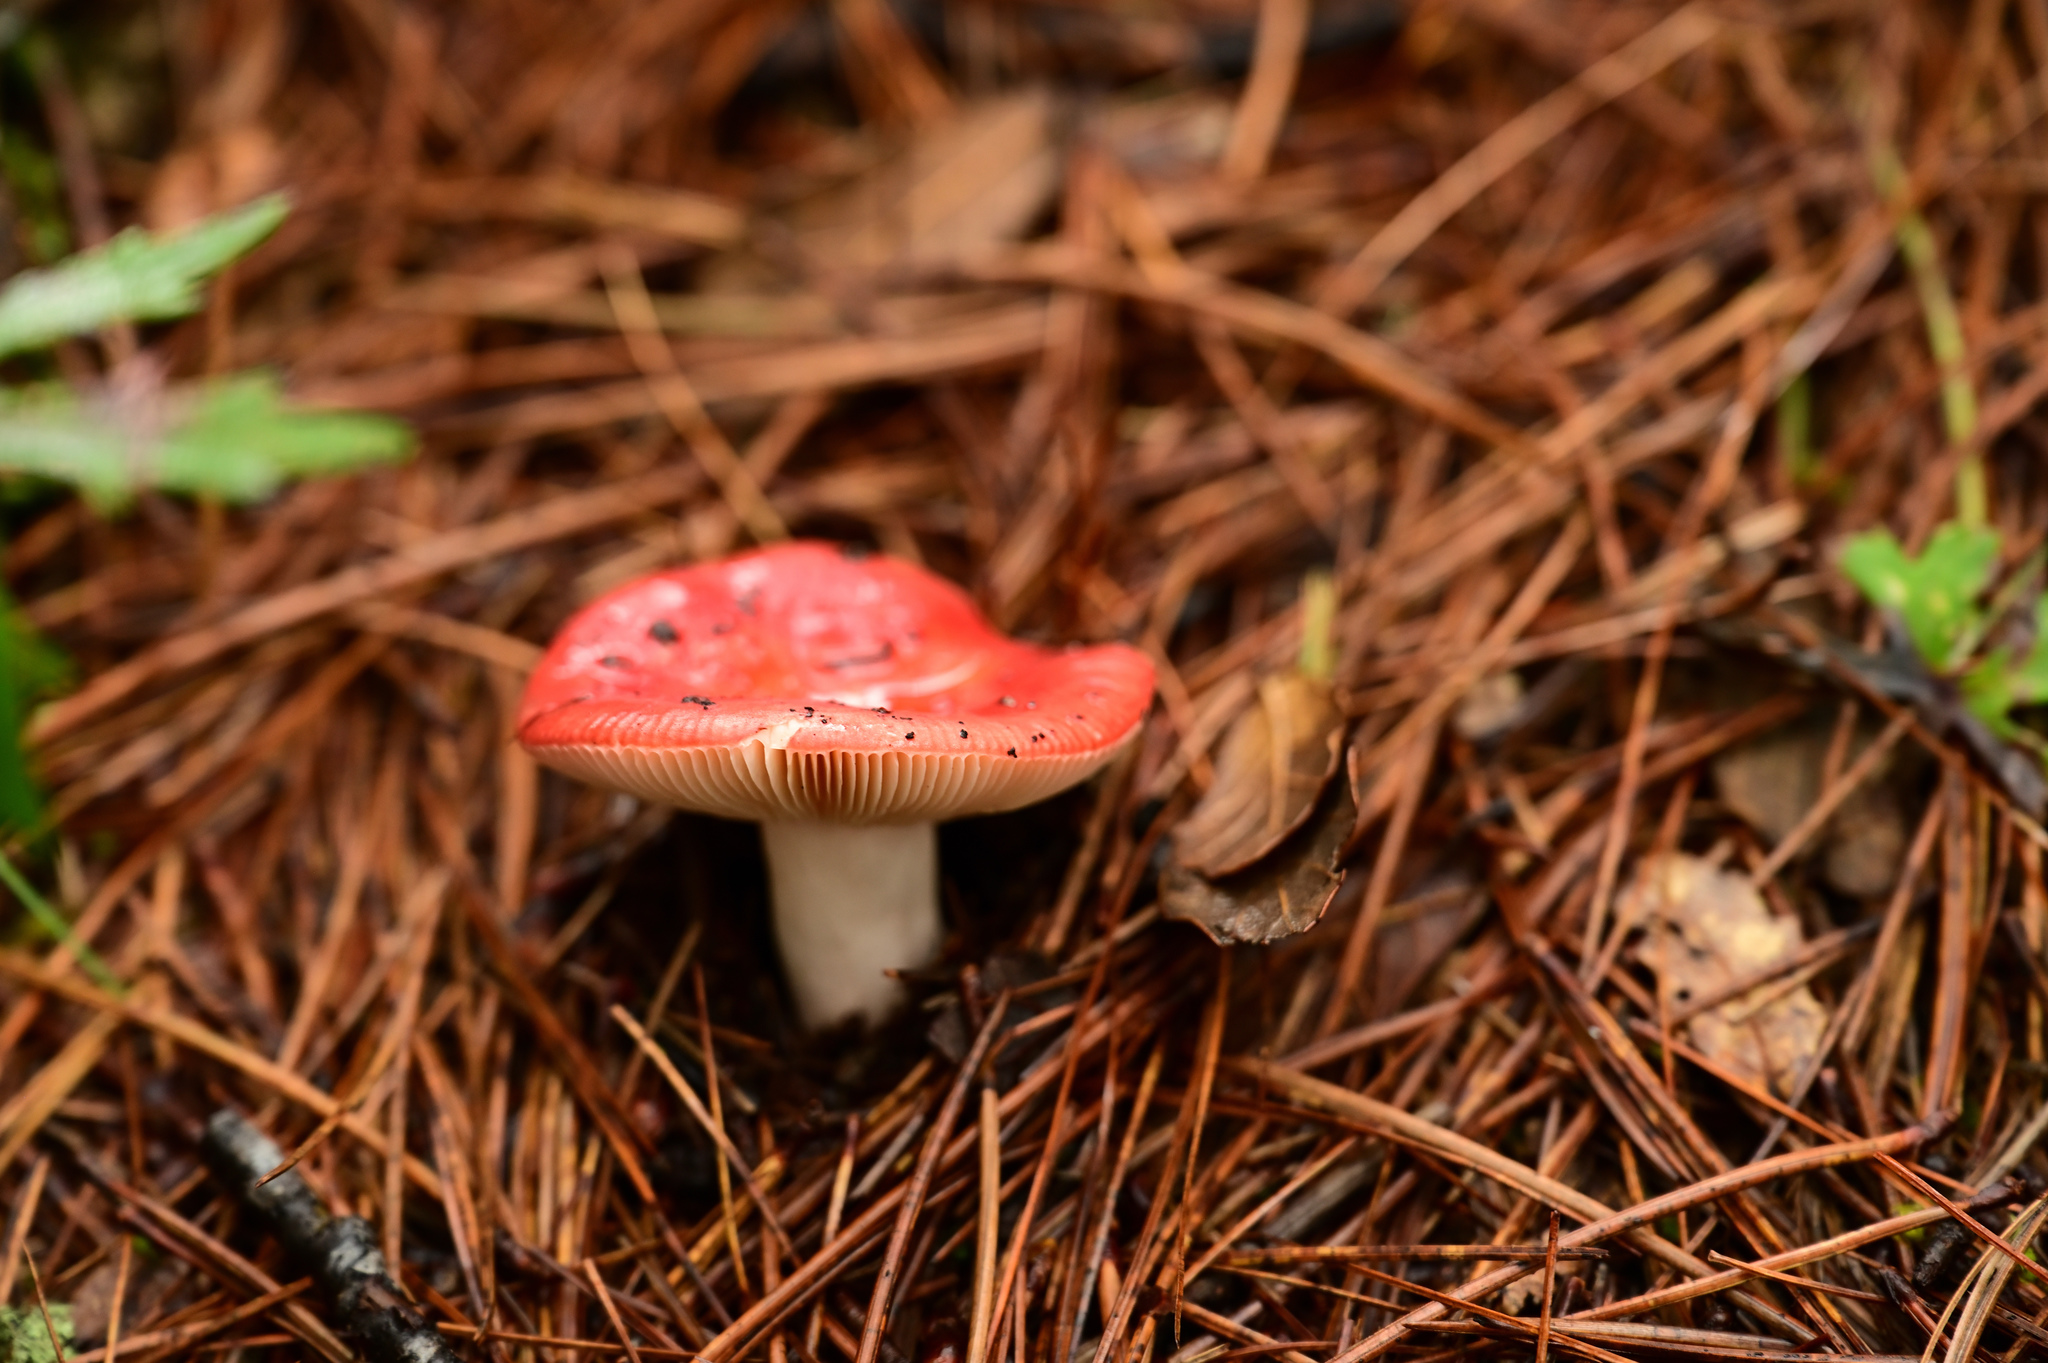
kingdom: Fungi
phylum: Basidiomycota
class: Agaricomycetes
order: Russulales
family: Russulaceae
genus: Russula
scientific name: Russula cremoricolor
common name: Winter russula
